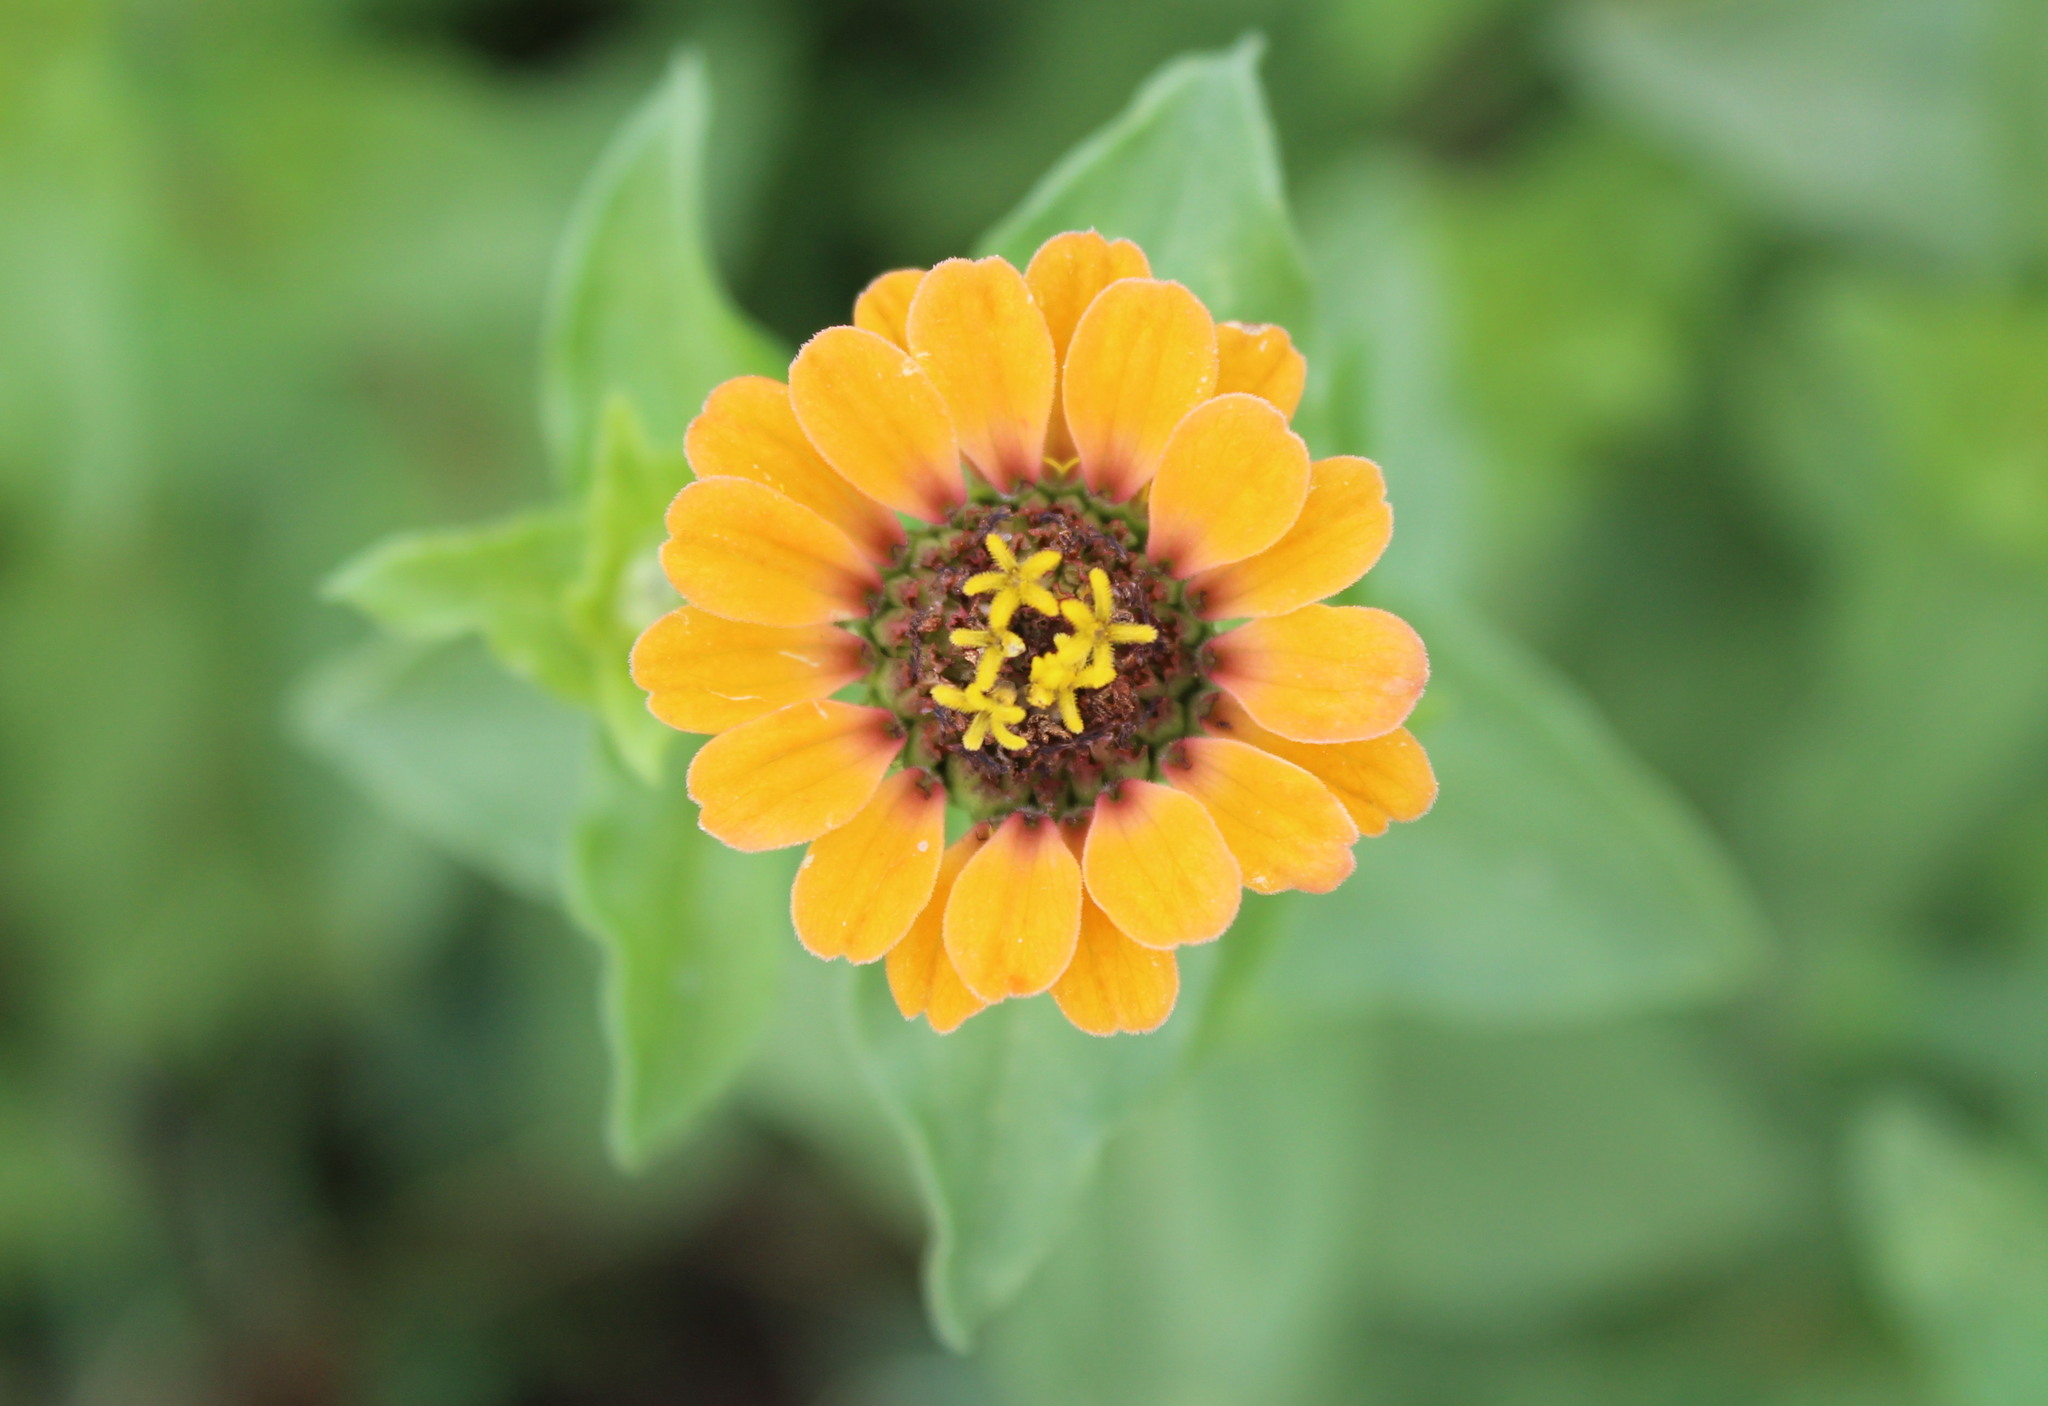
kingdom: Plantae
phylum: Tracheophyta
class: Magnoliopsida
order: Asterales
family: Asteraceae
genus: Zinnia
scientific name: Zinnia peruviana
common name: Peruvian zinnia
